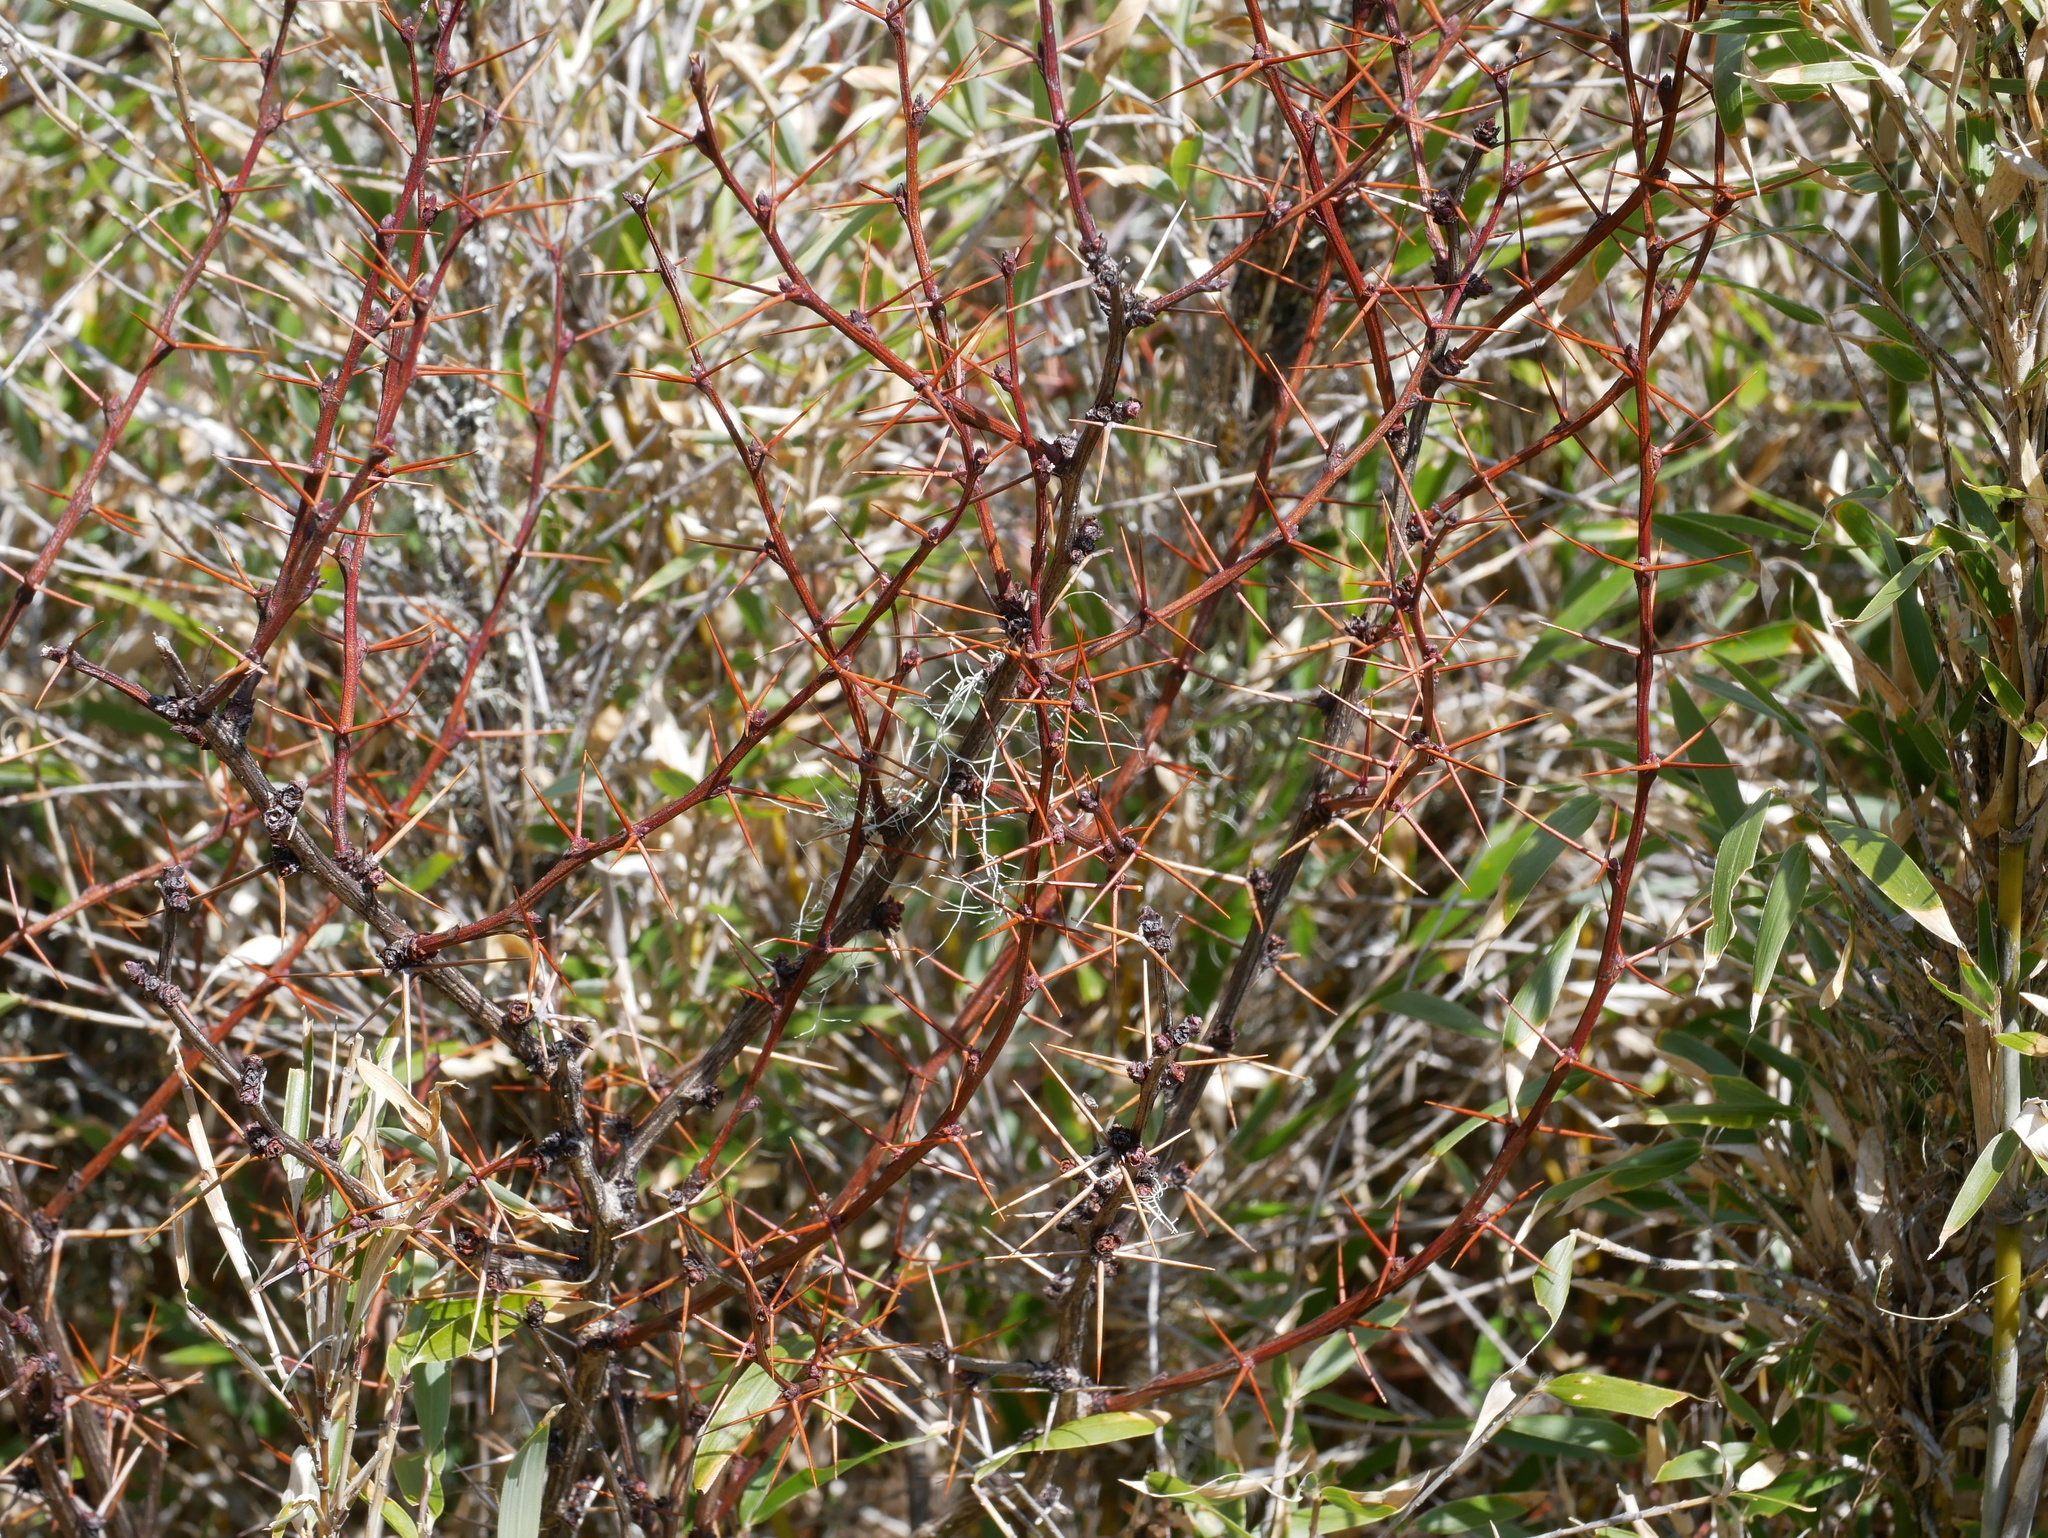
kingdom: Plantae
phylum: Tracheophyta
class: Magnoliopsida
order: Ranunculales
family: Berberidaceae
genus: Berberis
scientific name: Berberis morrisonensis
